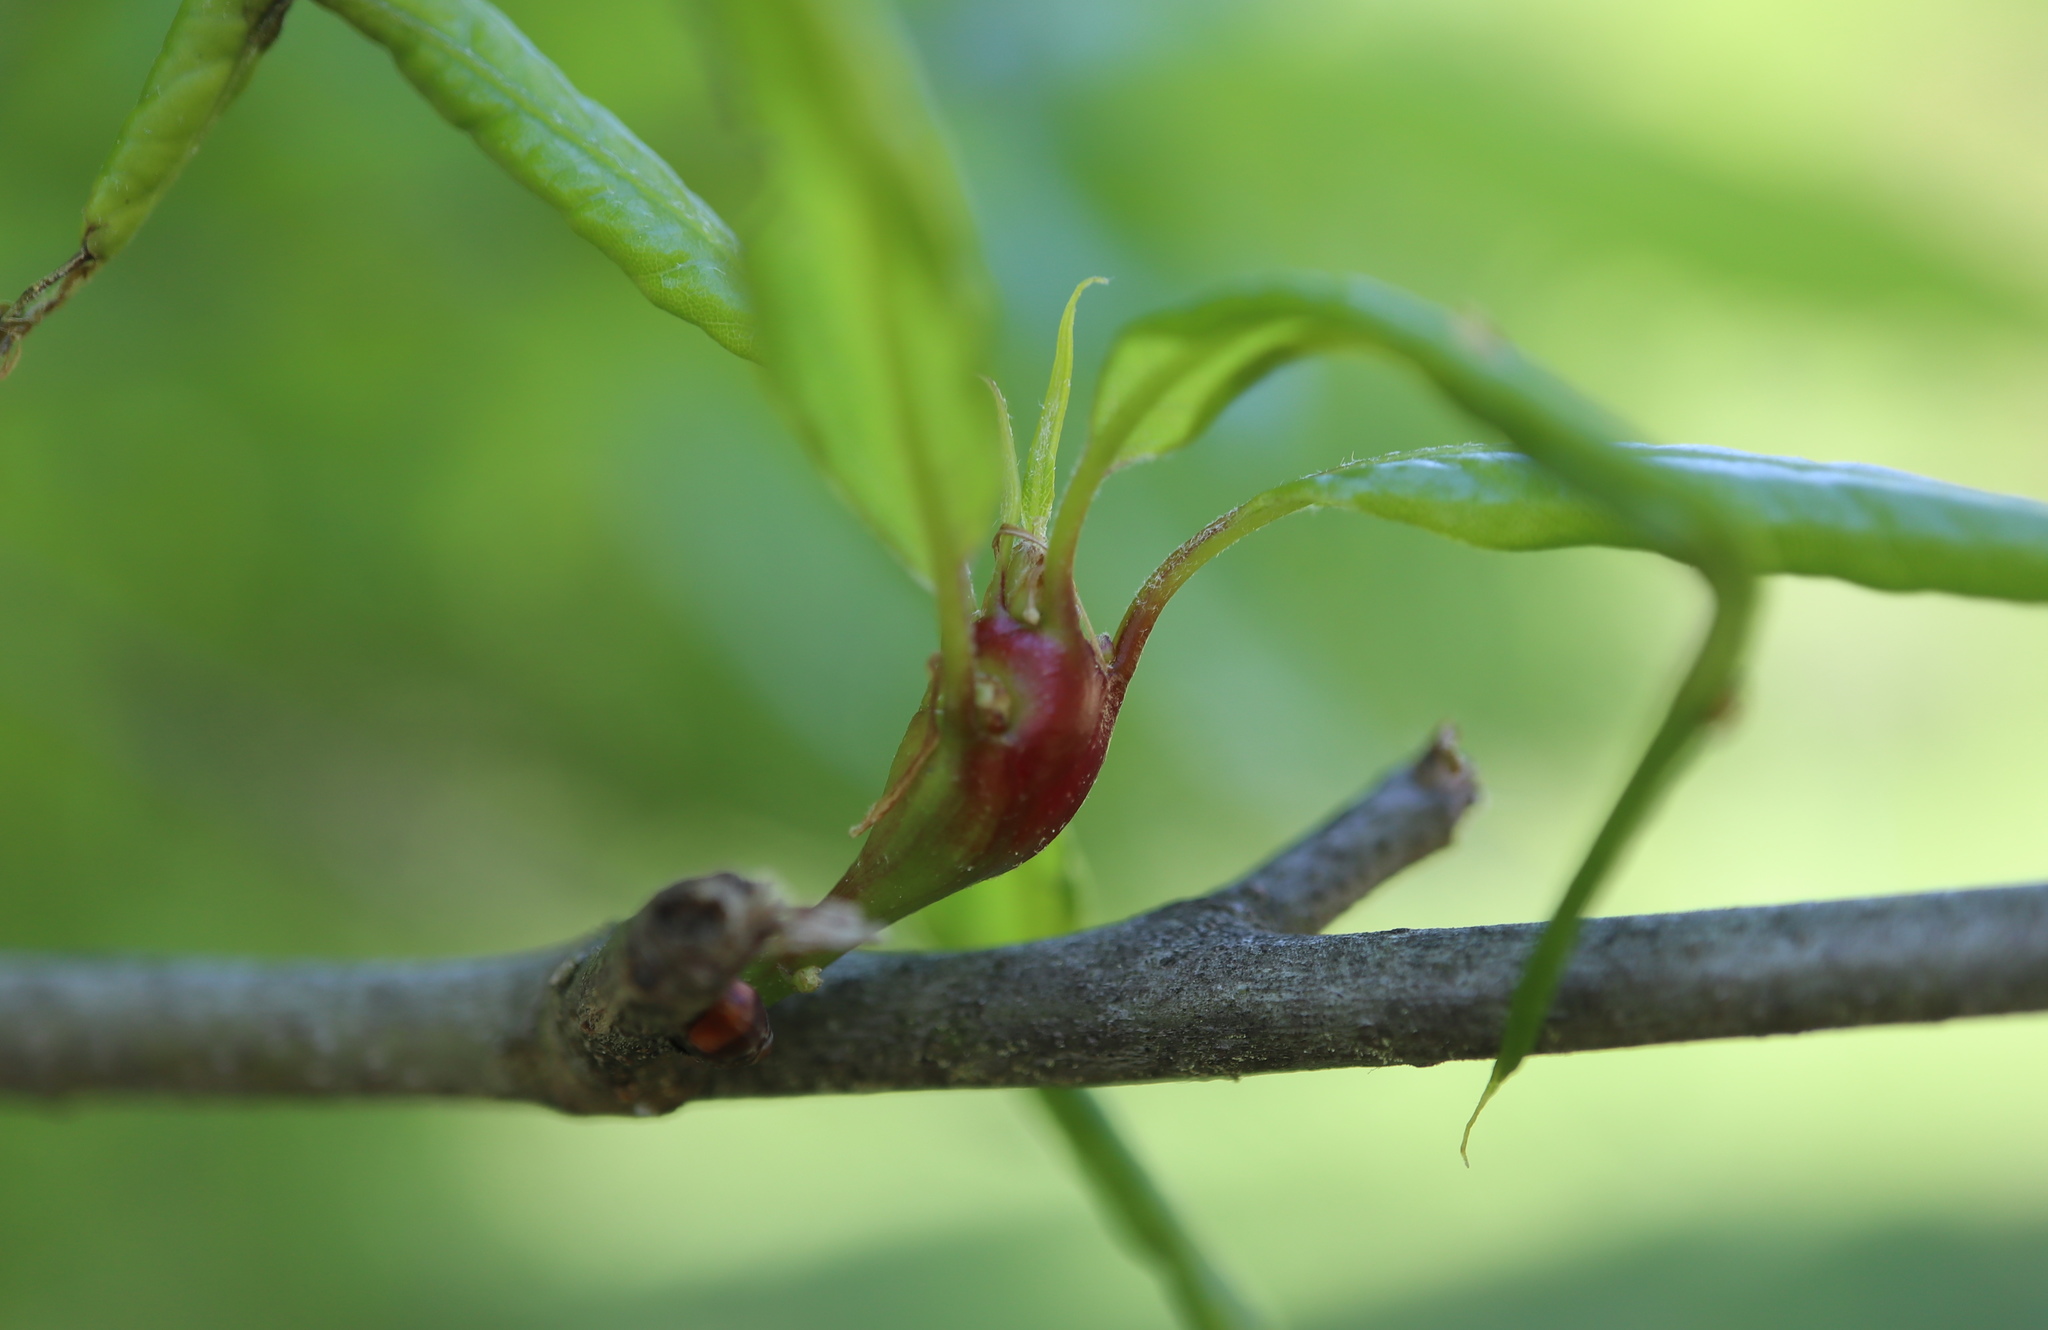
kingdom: Animalia
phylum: Arthropoda
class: Insecta
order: Hymenoptera
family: Cynipidae
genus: Zapatella
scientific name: Zapatella quercusphellos
